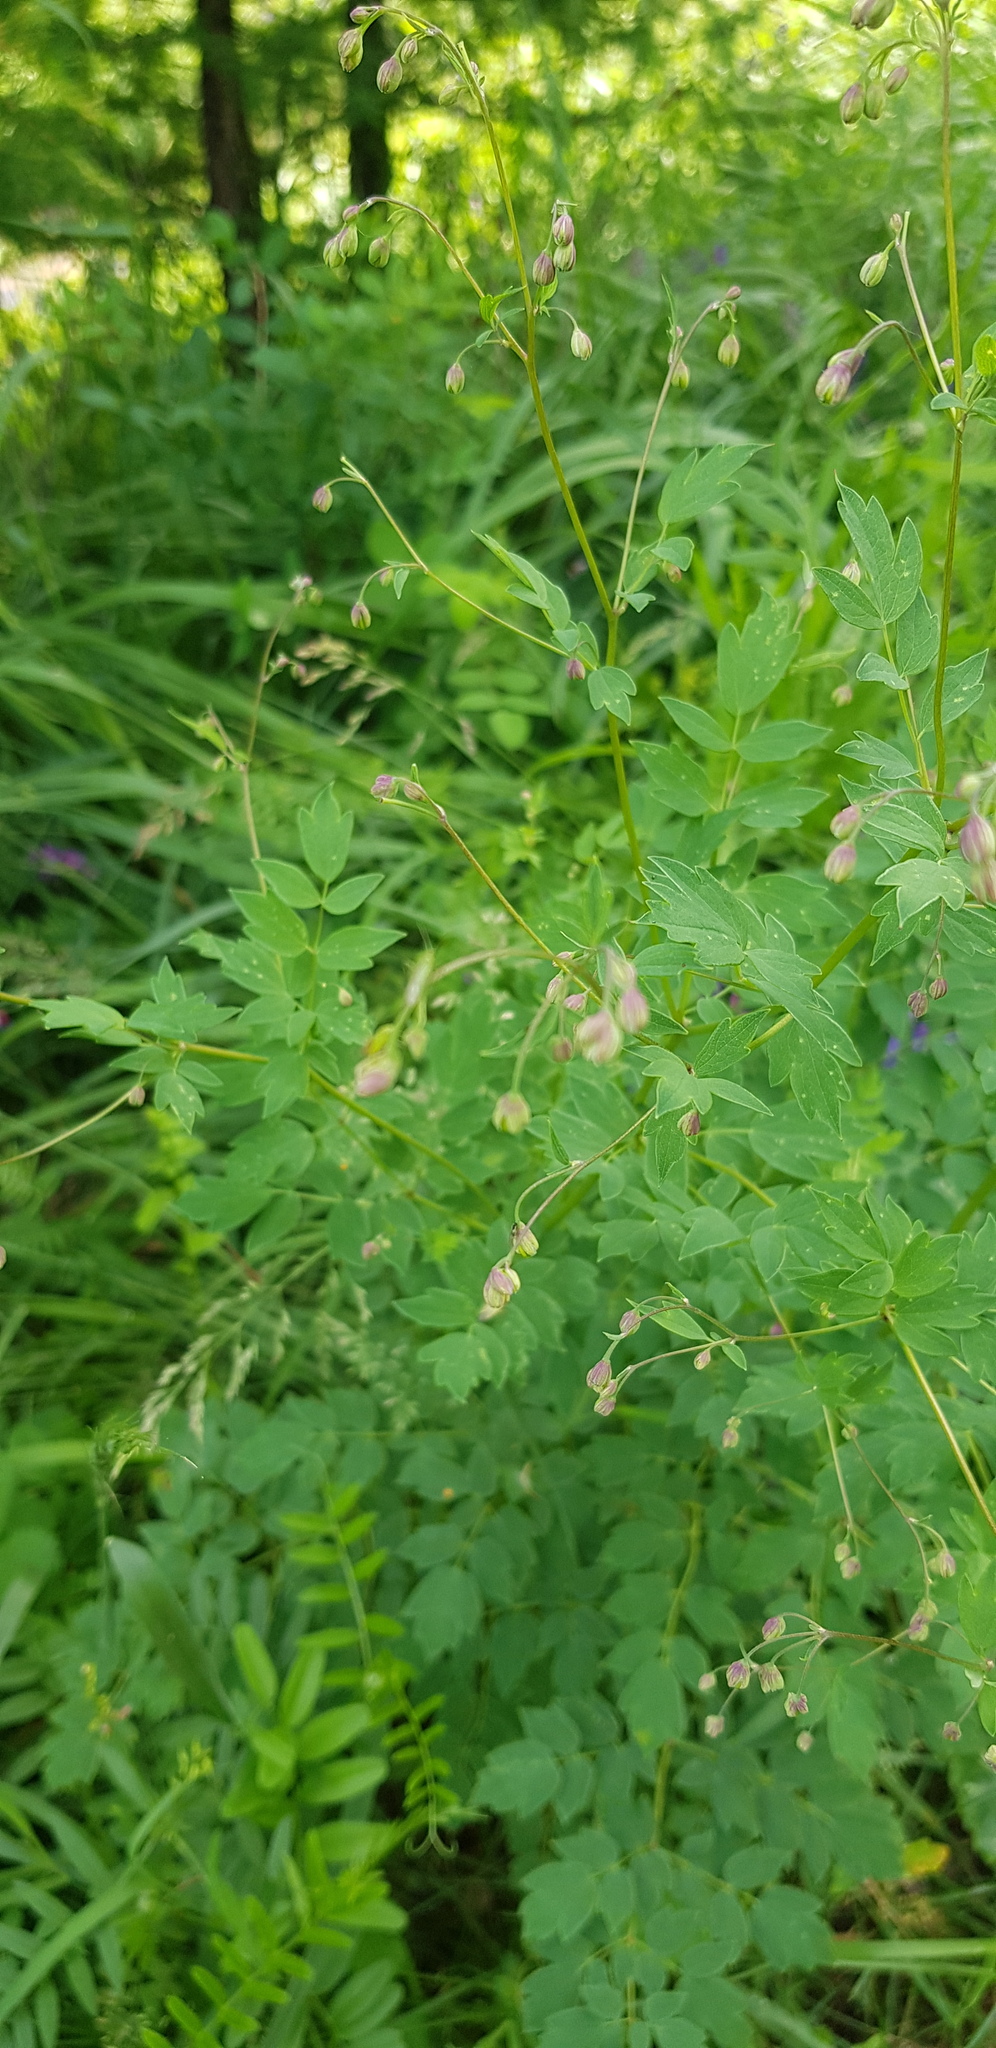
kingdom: Plantae
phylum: Tracheophyta
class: Magnoliopsida
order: Ranunculales
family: Ranunculaceae
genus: Thalictrum
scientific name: Thalictrum minus
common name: Lesser meadow-rue
